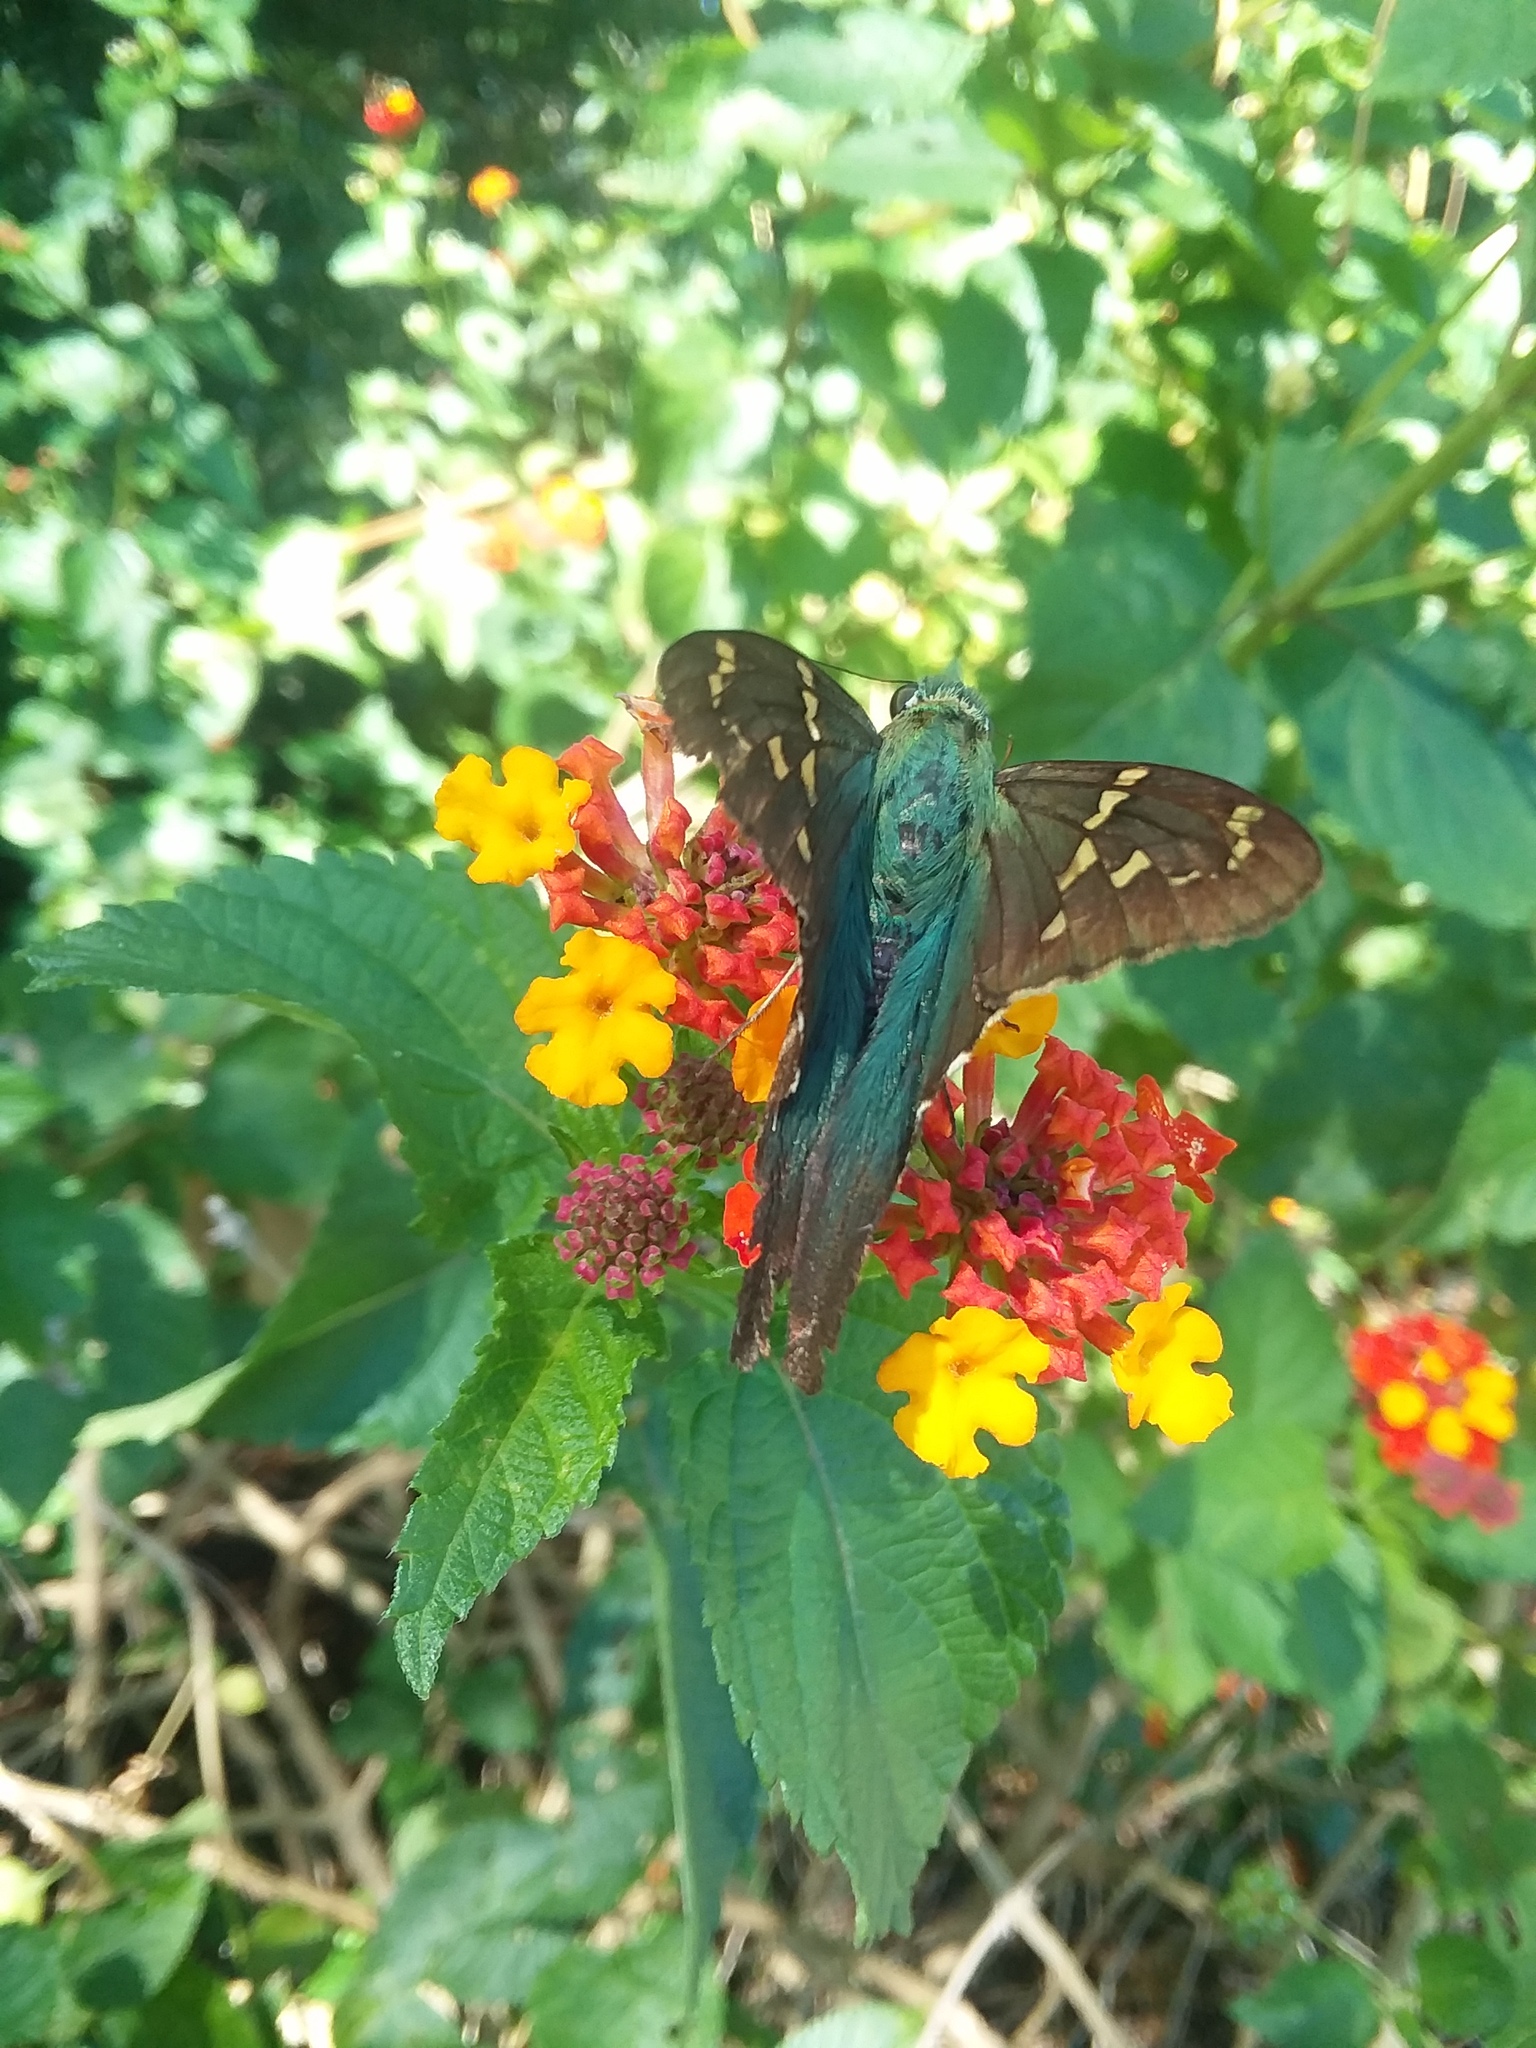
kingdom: Animalia
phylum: Arthropoda
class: Insecta
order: Lepidoptera
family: Hesperiidae
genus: Urbanus
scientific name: Urbanus proteus
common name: Long-tailed skipper
